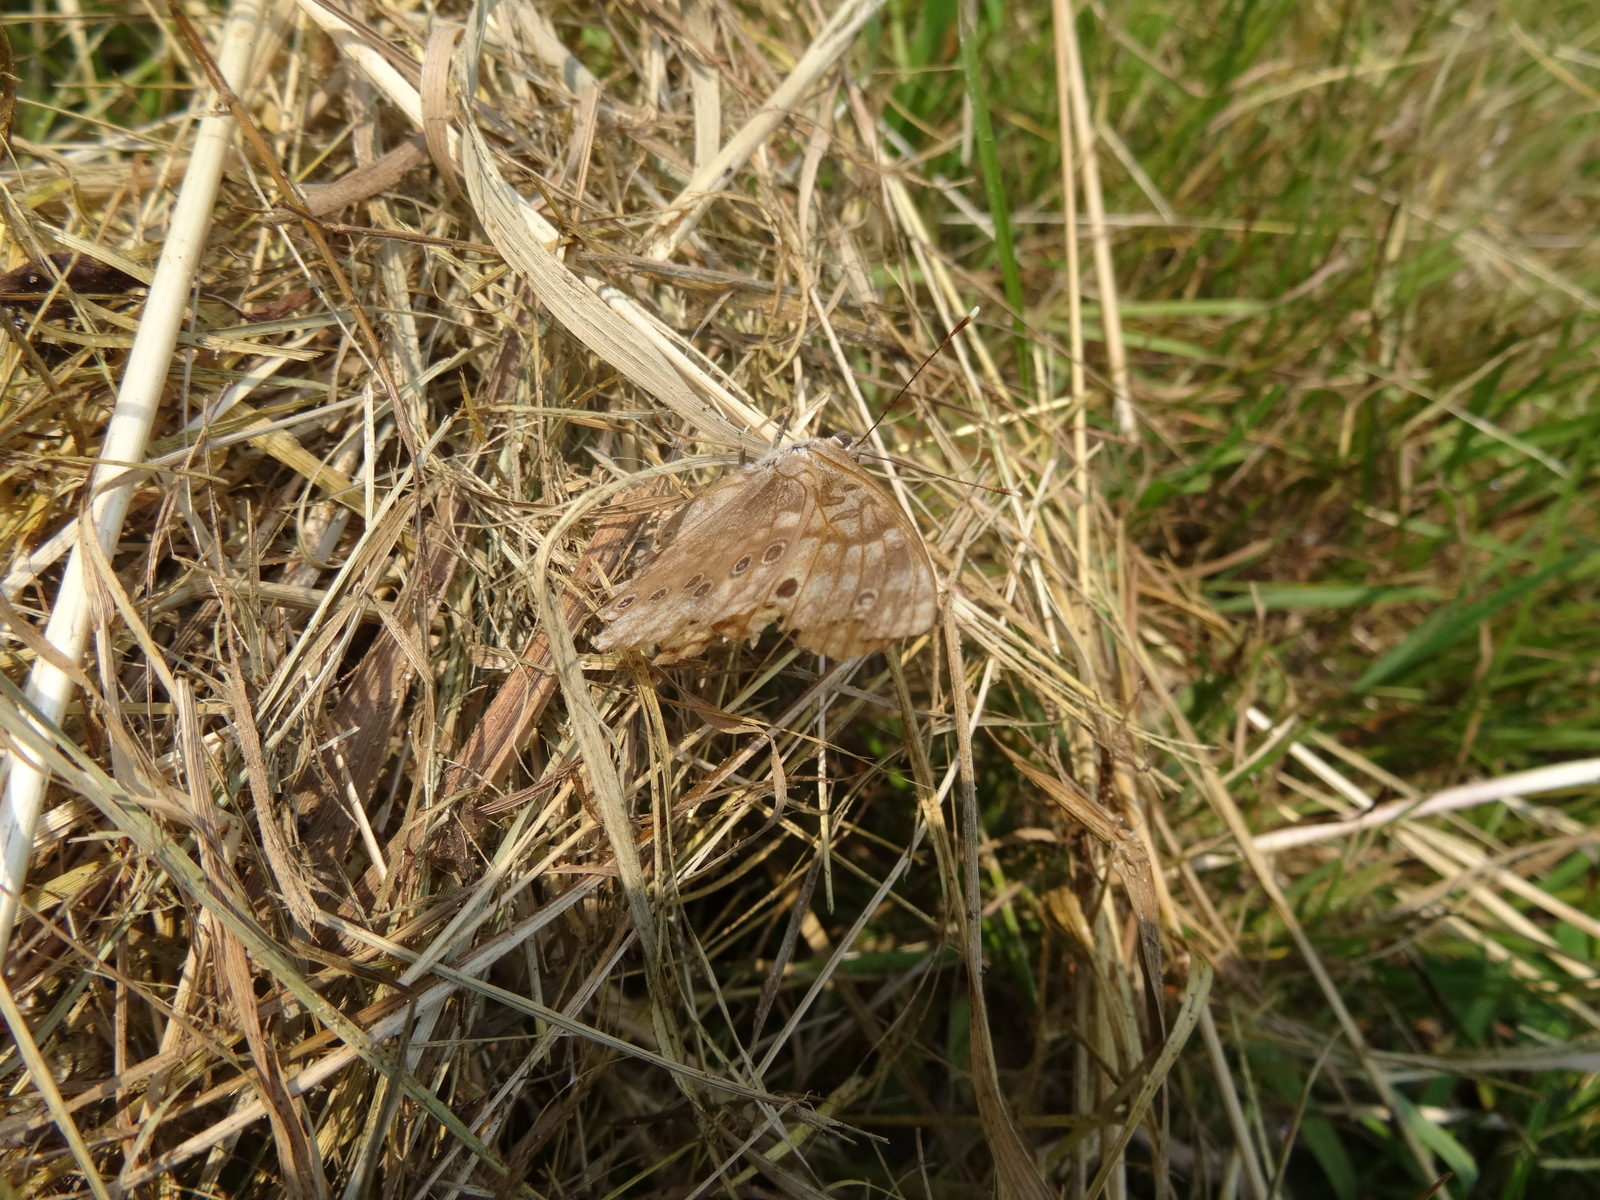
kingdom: Animalia
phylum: Arthropoda
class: Insecta
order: Lepidoptera
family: Nymphalidae
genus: Asterocampa
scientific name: Asterocampa celtis
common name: Hackberry emperor
